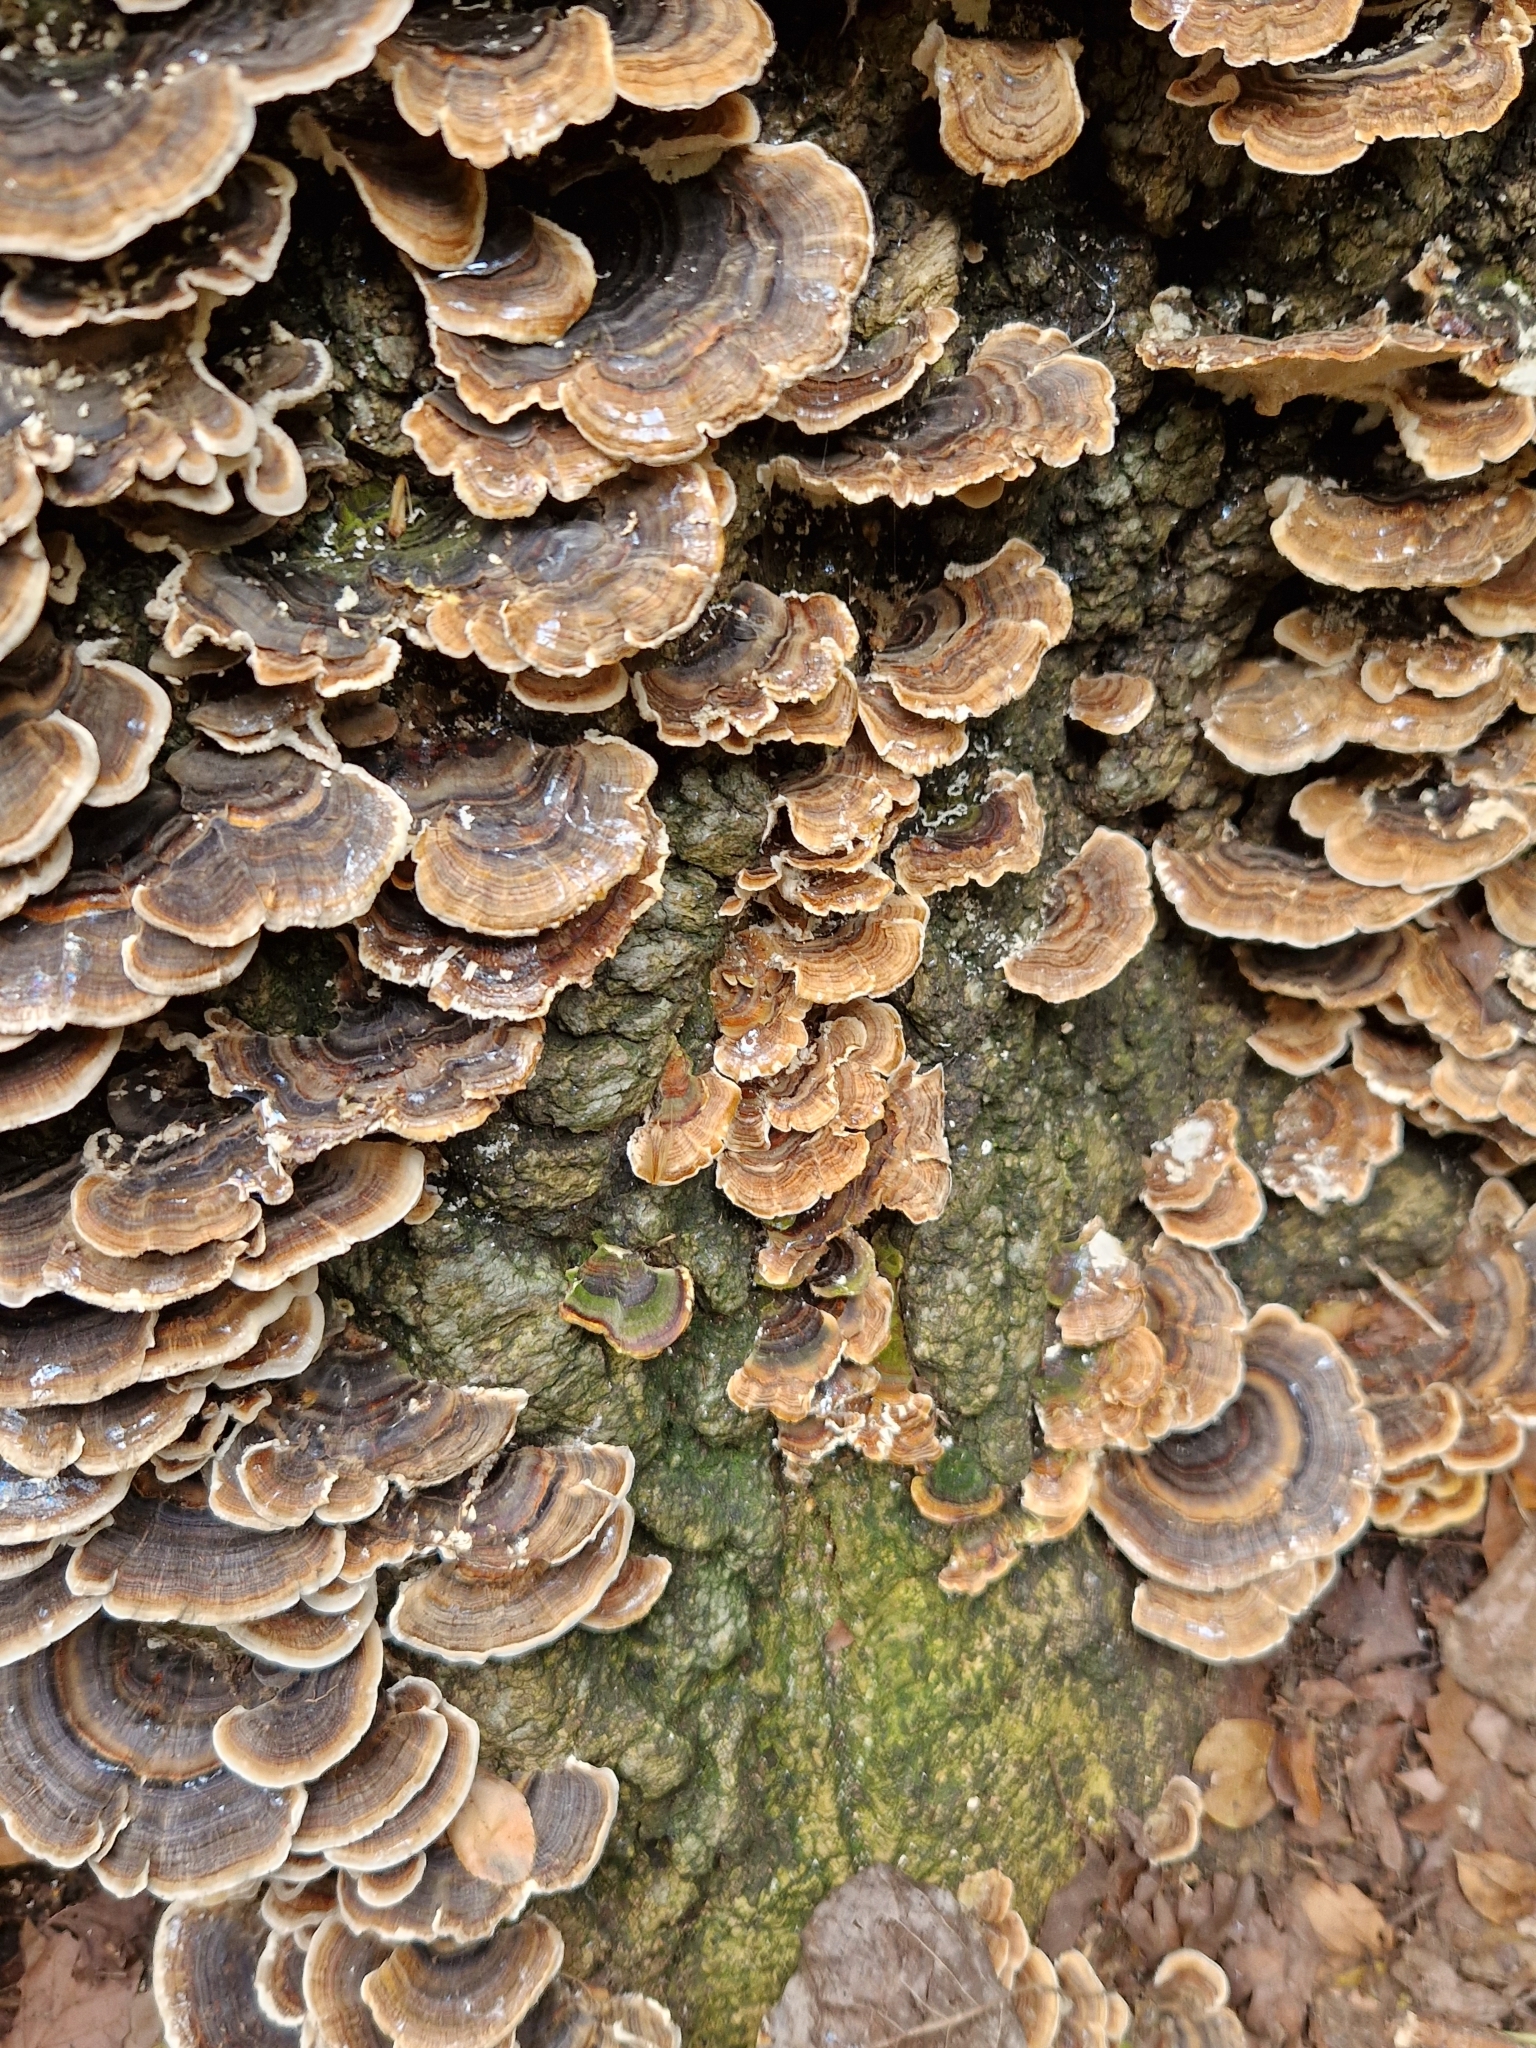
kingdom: Fungi
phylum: Basidiomycota
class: Agaricomycetes
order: Polyporales
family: Polyporaceae
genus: Trametes
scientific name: Trametes versicolor
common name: Turkeytail
